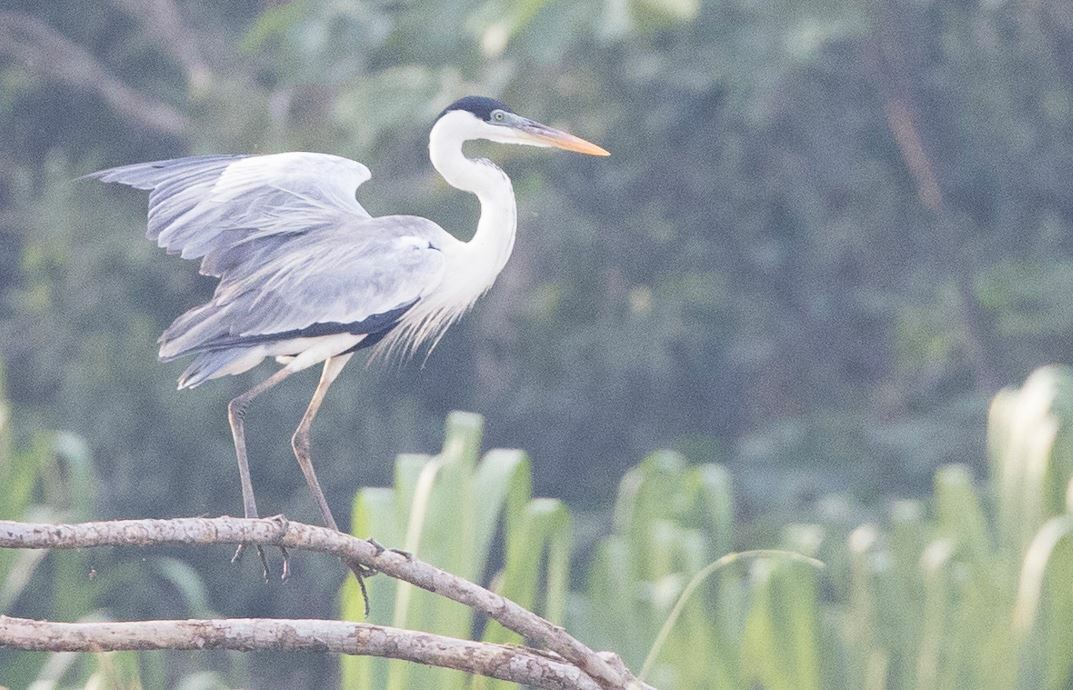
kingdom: Animalia
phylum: Chordata
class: Aves
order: Pelecaniformes
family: Ardeidae
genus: Ardea
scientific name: Ardea cocoi
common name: Cocoi heron
